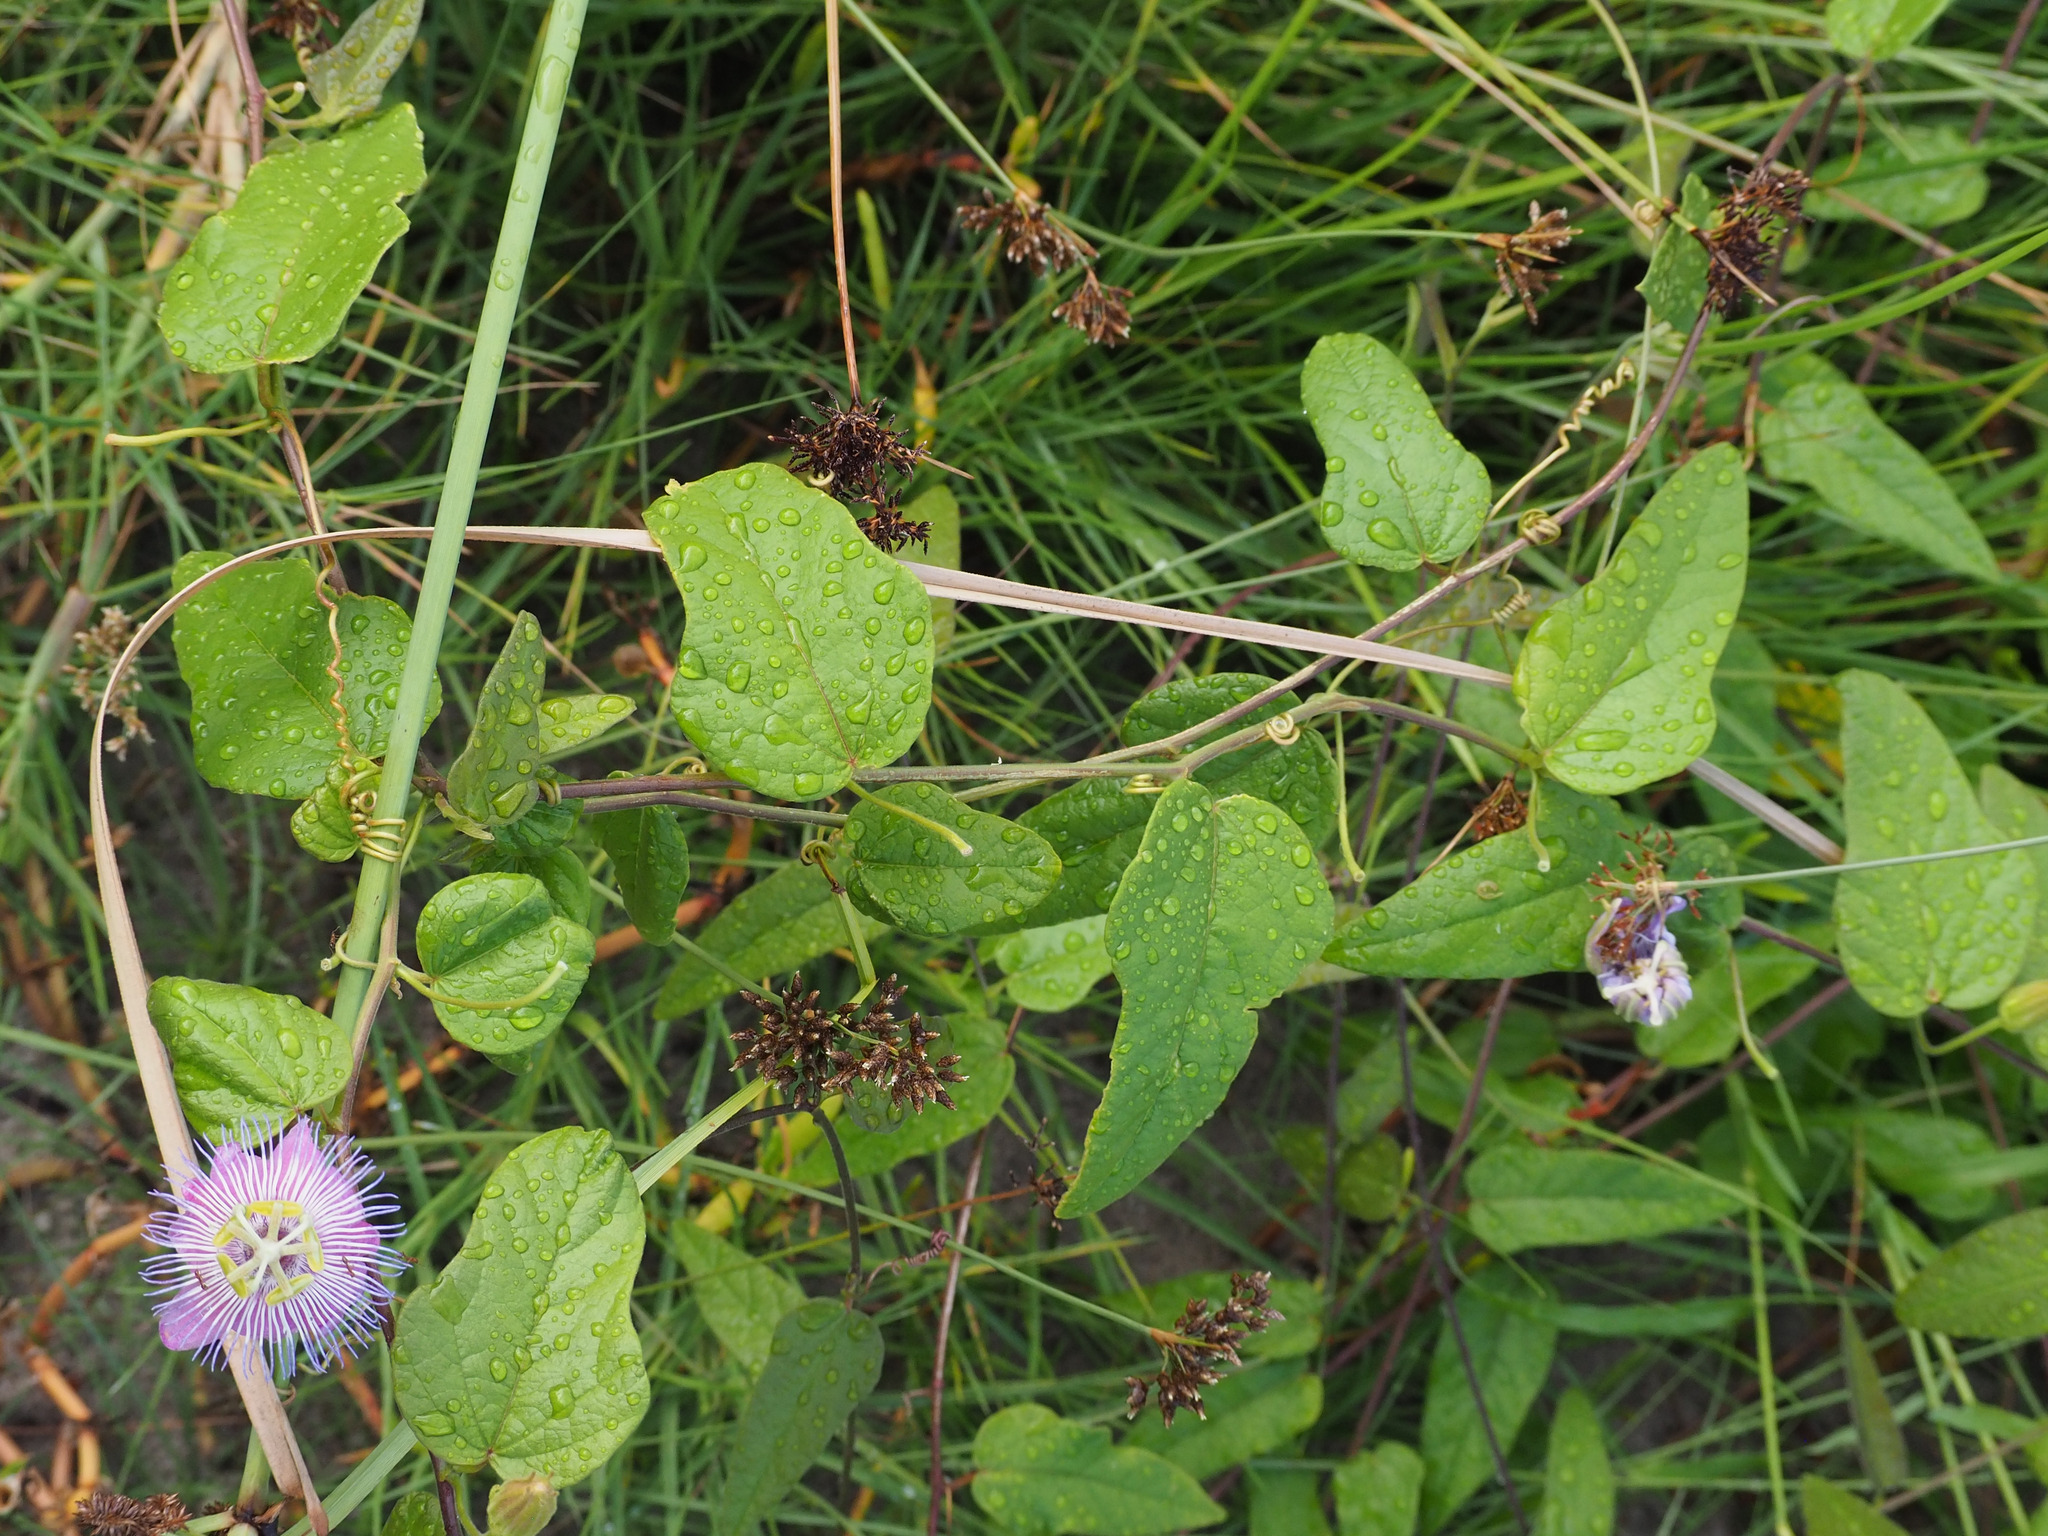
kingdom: Plantae
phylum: Tracheophyta
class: Magnoliopsida
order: Malpighiales
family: Passifloraceae
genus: Passiflora
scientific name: Passiflora urbaniana
